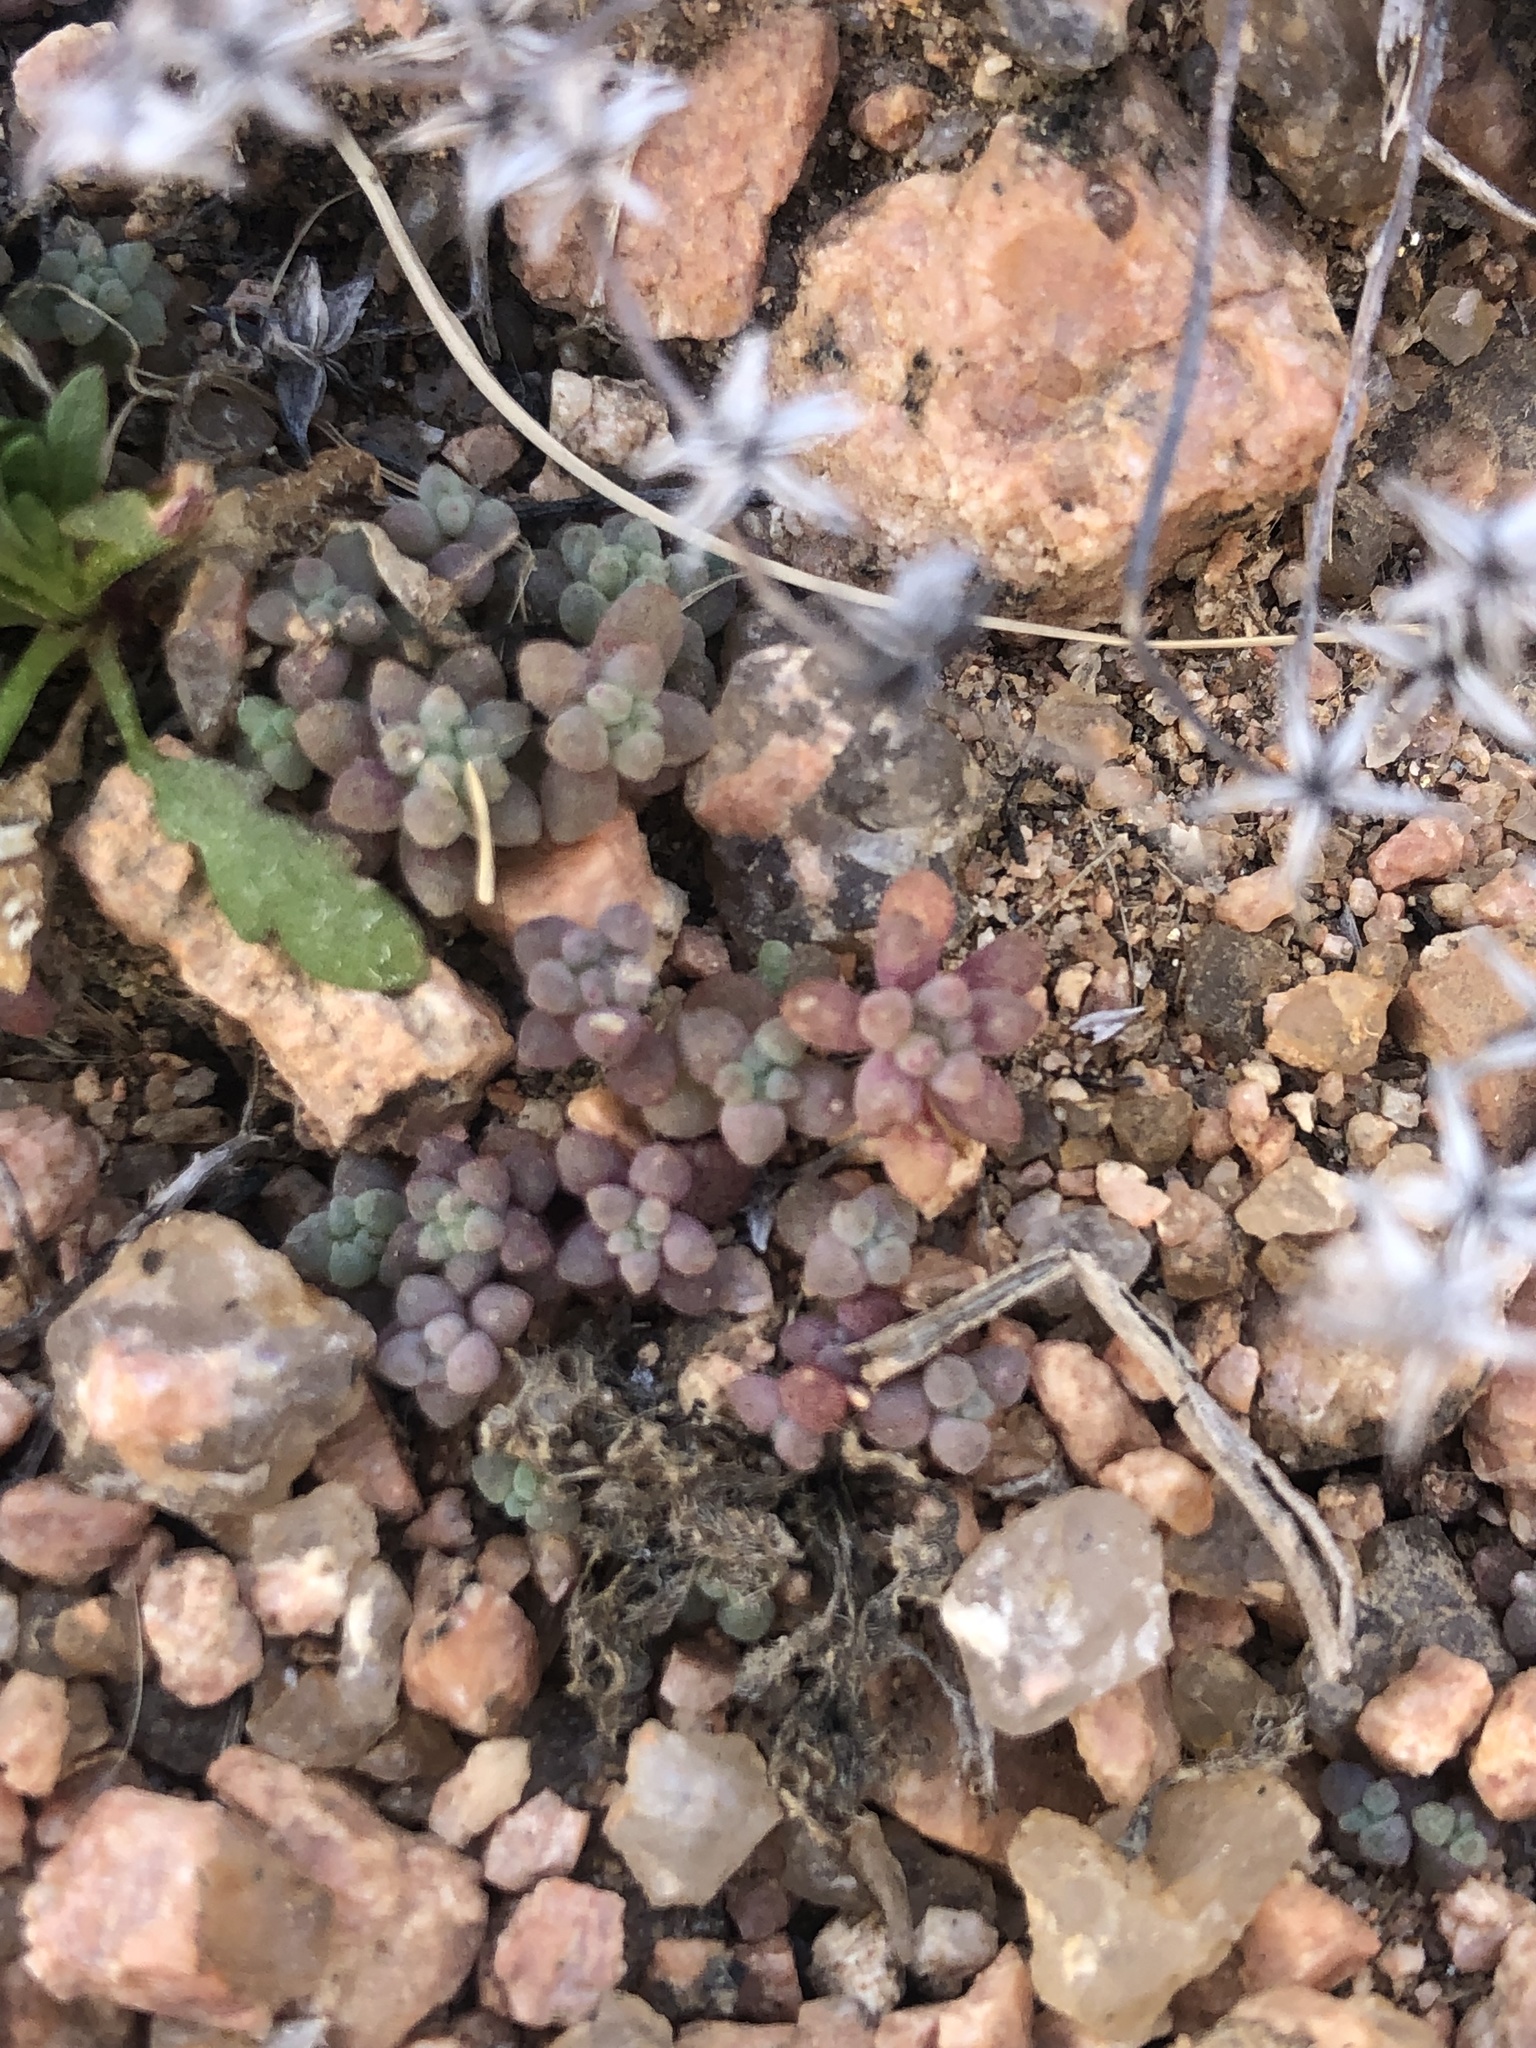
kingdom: Plantae
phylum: Tracheophyta
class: Magnoliopsida
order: Saxifragales
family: Crassulaceae
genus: Sedum
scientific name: Sedum nuttallii
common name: Yellow stonecrop
